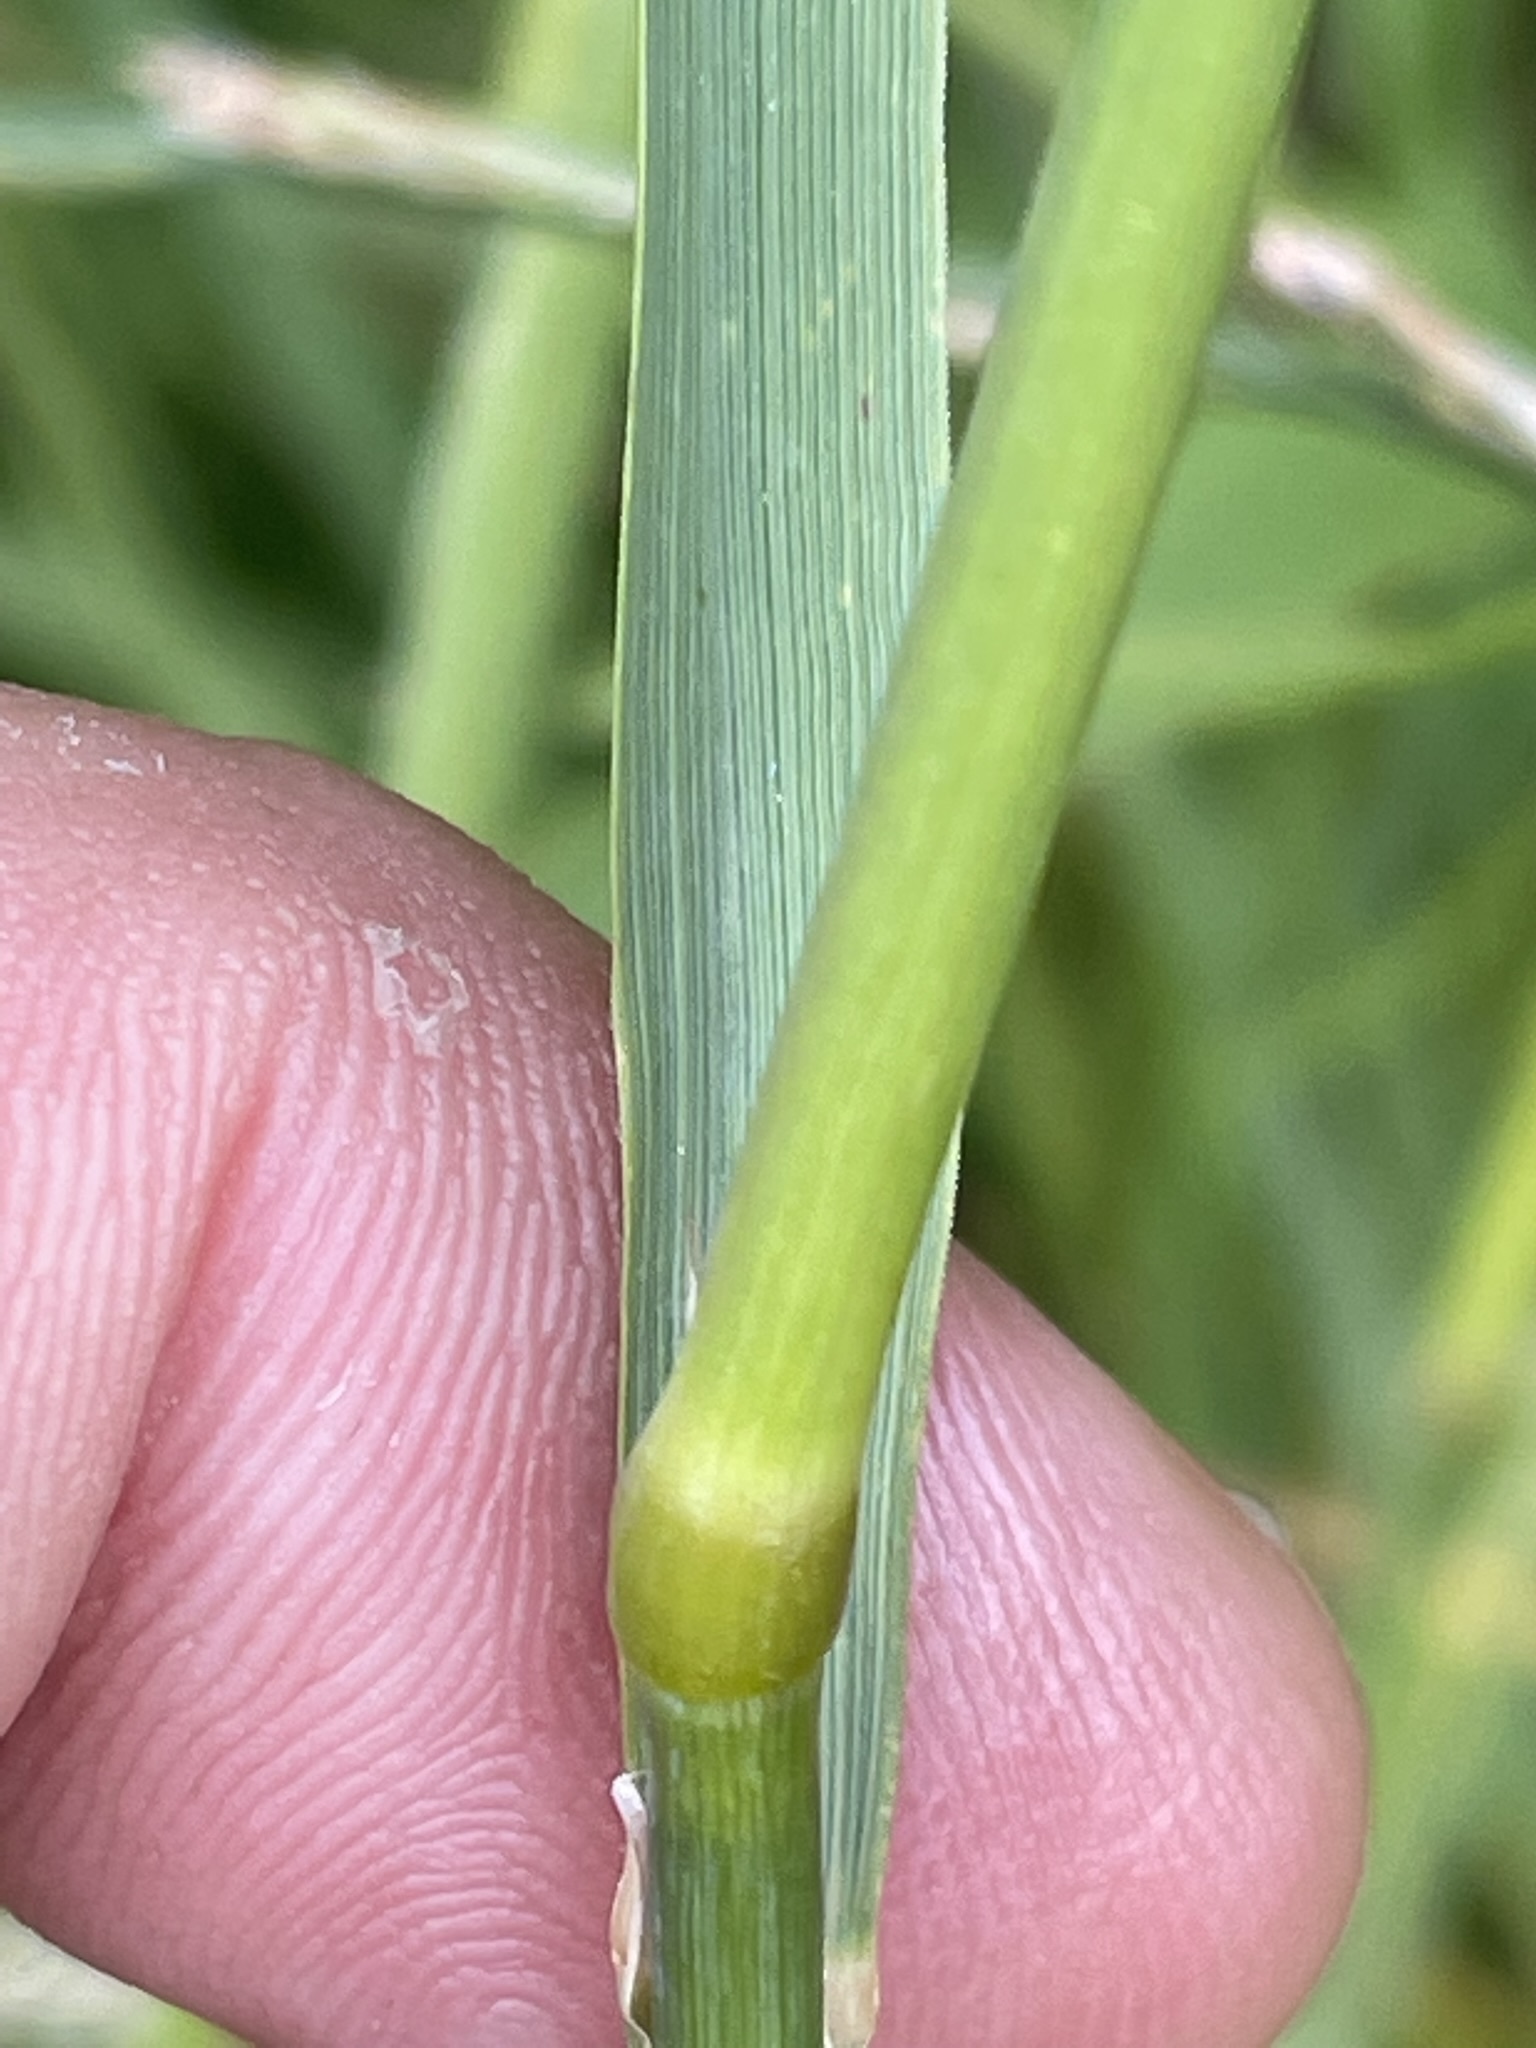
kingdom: Plantae
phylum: Tracheophyta
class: Liliopsida
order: Poales
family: Poaceae
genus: Calamagrostis
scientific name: Calamagrostis epigejos
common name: Wood small-reed
